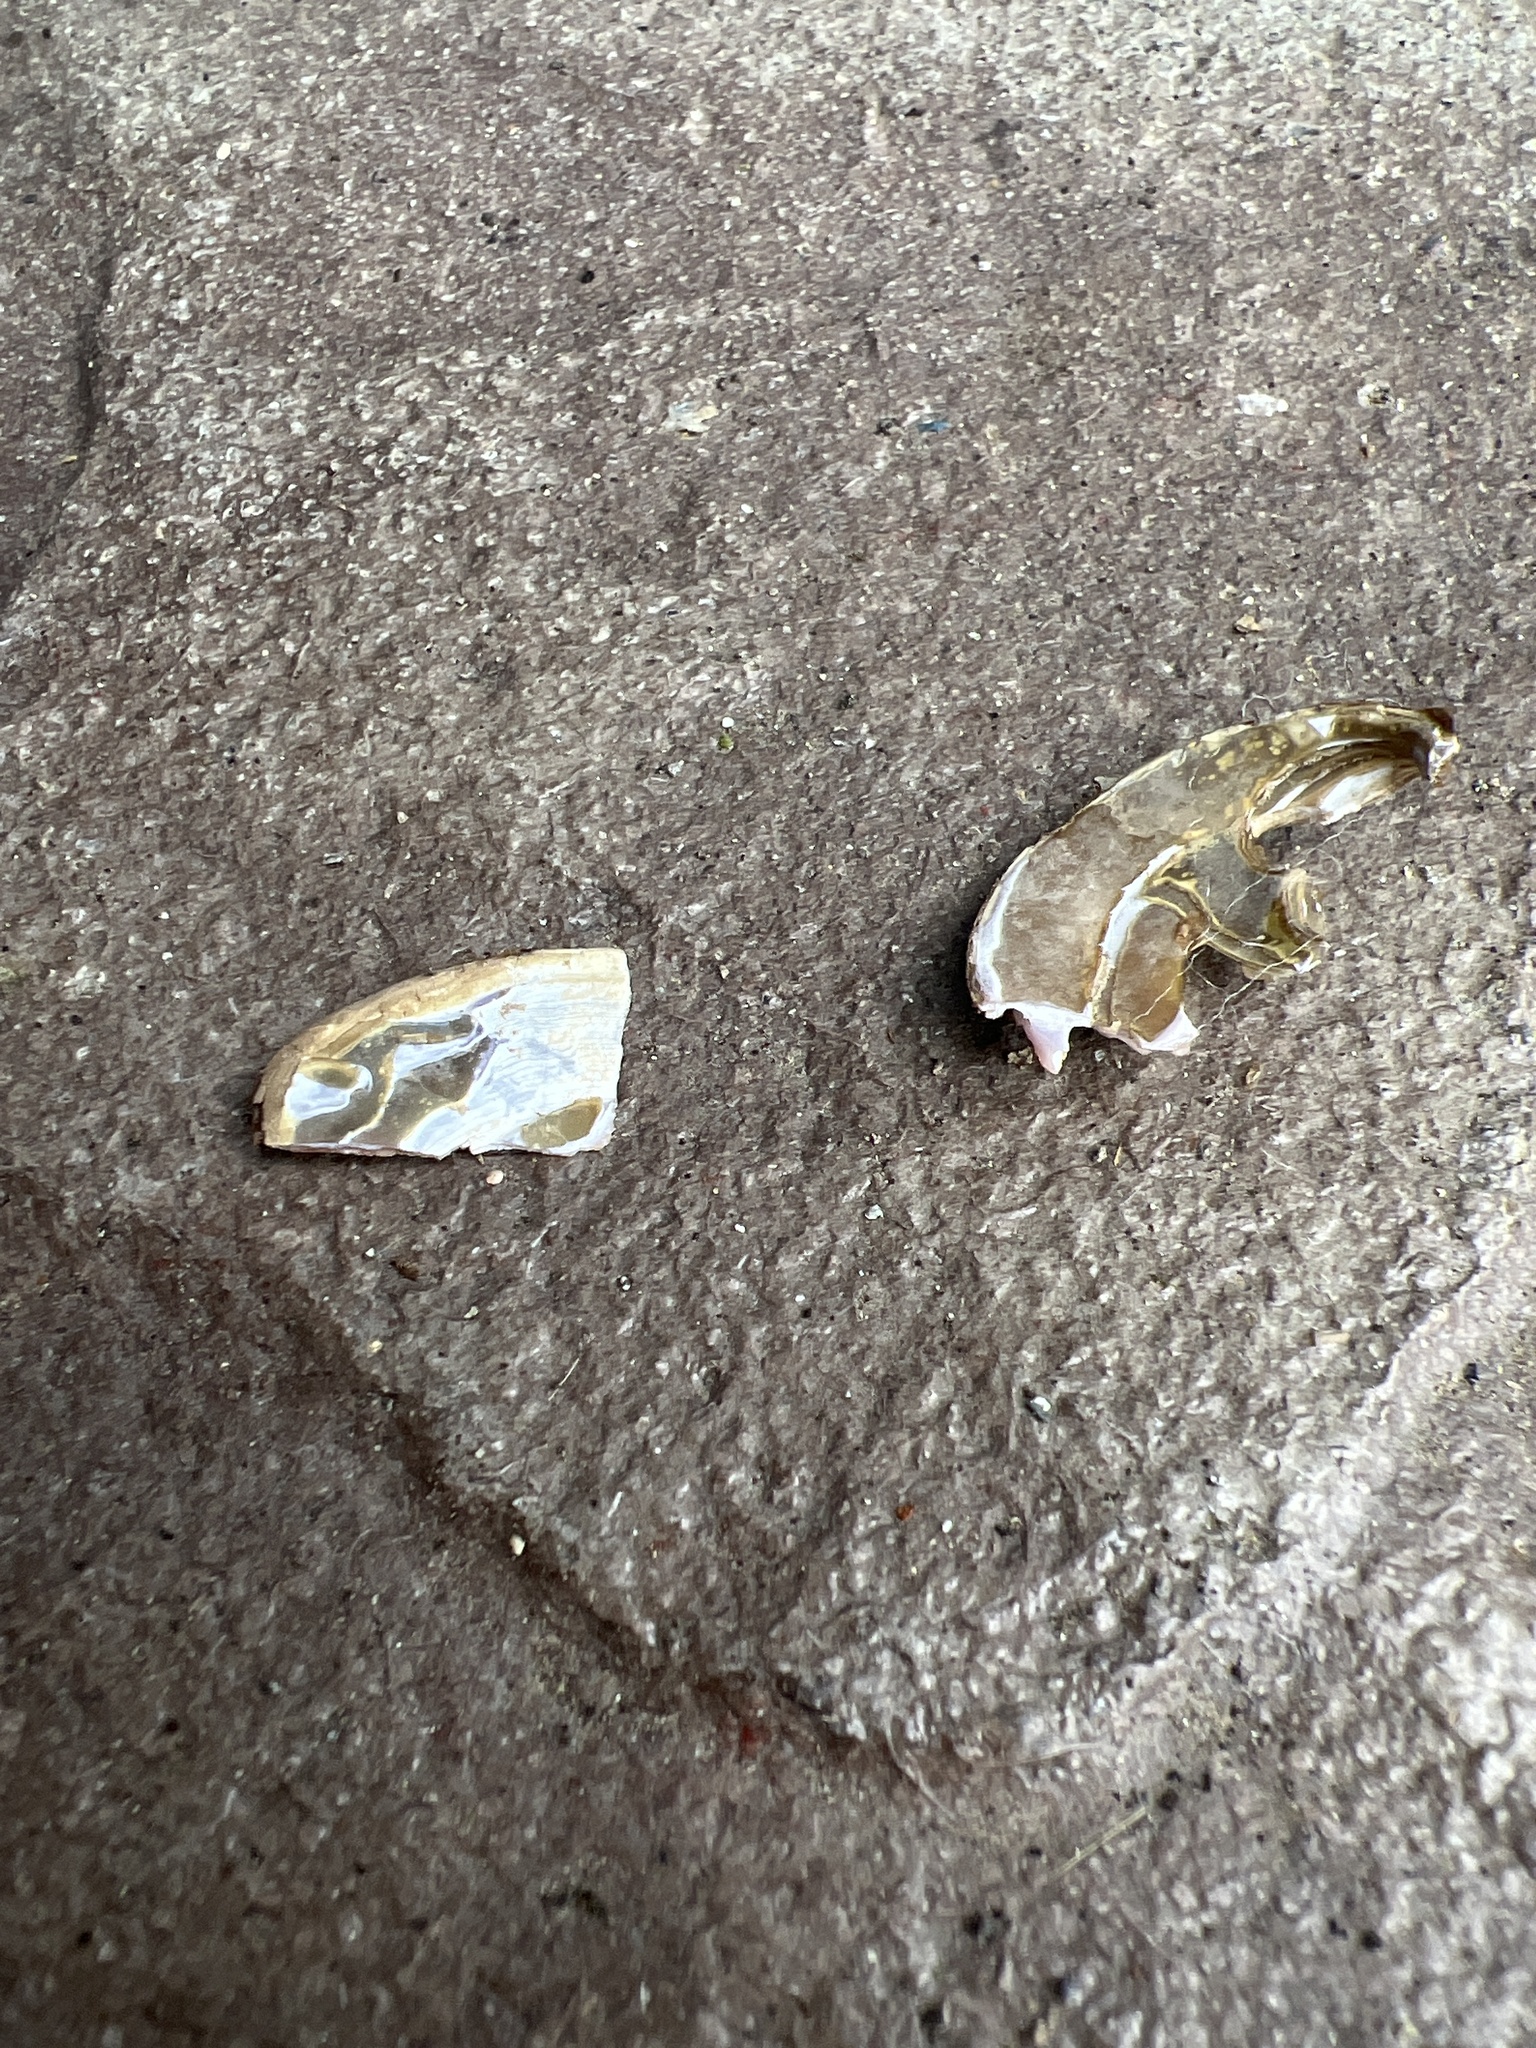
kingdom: Animalia
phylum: Mollusca
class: Bivalvia
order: Unionida
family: Margaritiferidae
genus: Margaritifera
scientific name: Margaritifera falcata
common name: Western pearlshell
